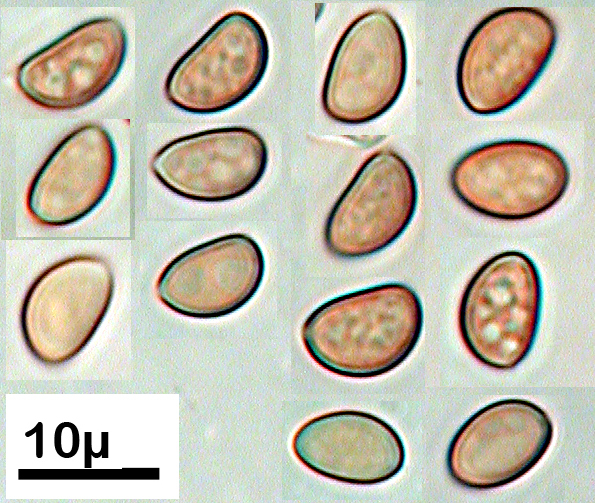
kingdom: Fungi
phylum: Basidiomycota
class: Agaricomycetes
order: Agaricales
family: Crepidotaceae
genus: Simocybe
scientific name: Simocybe pruinata
